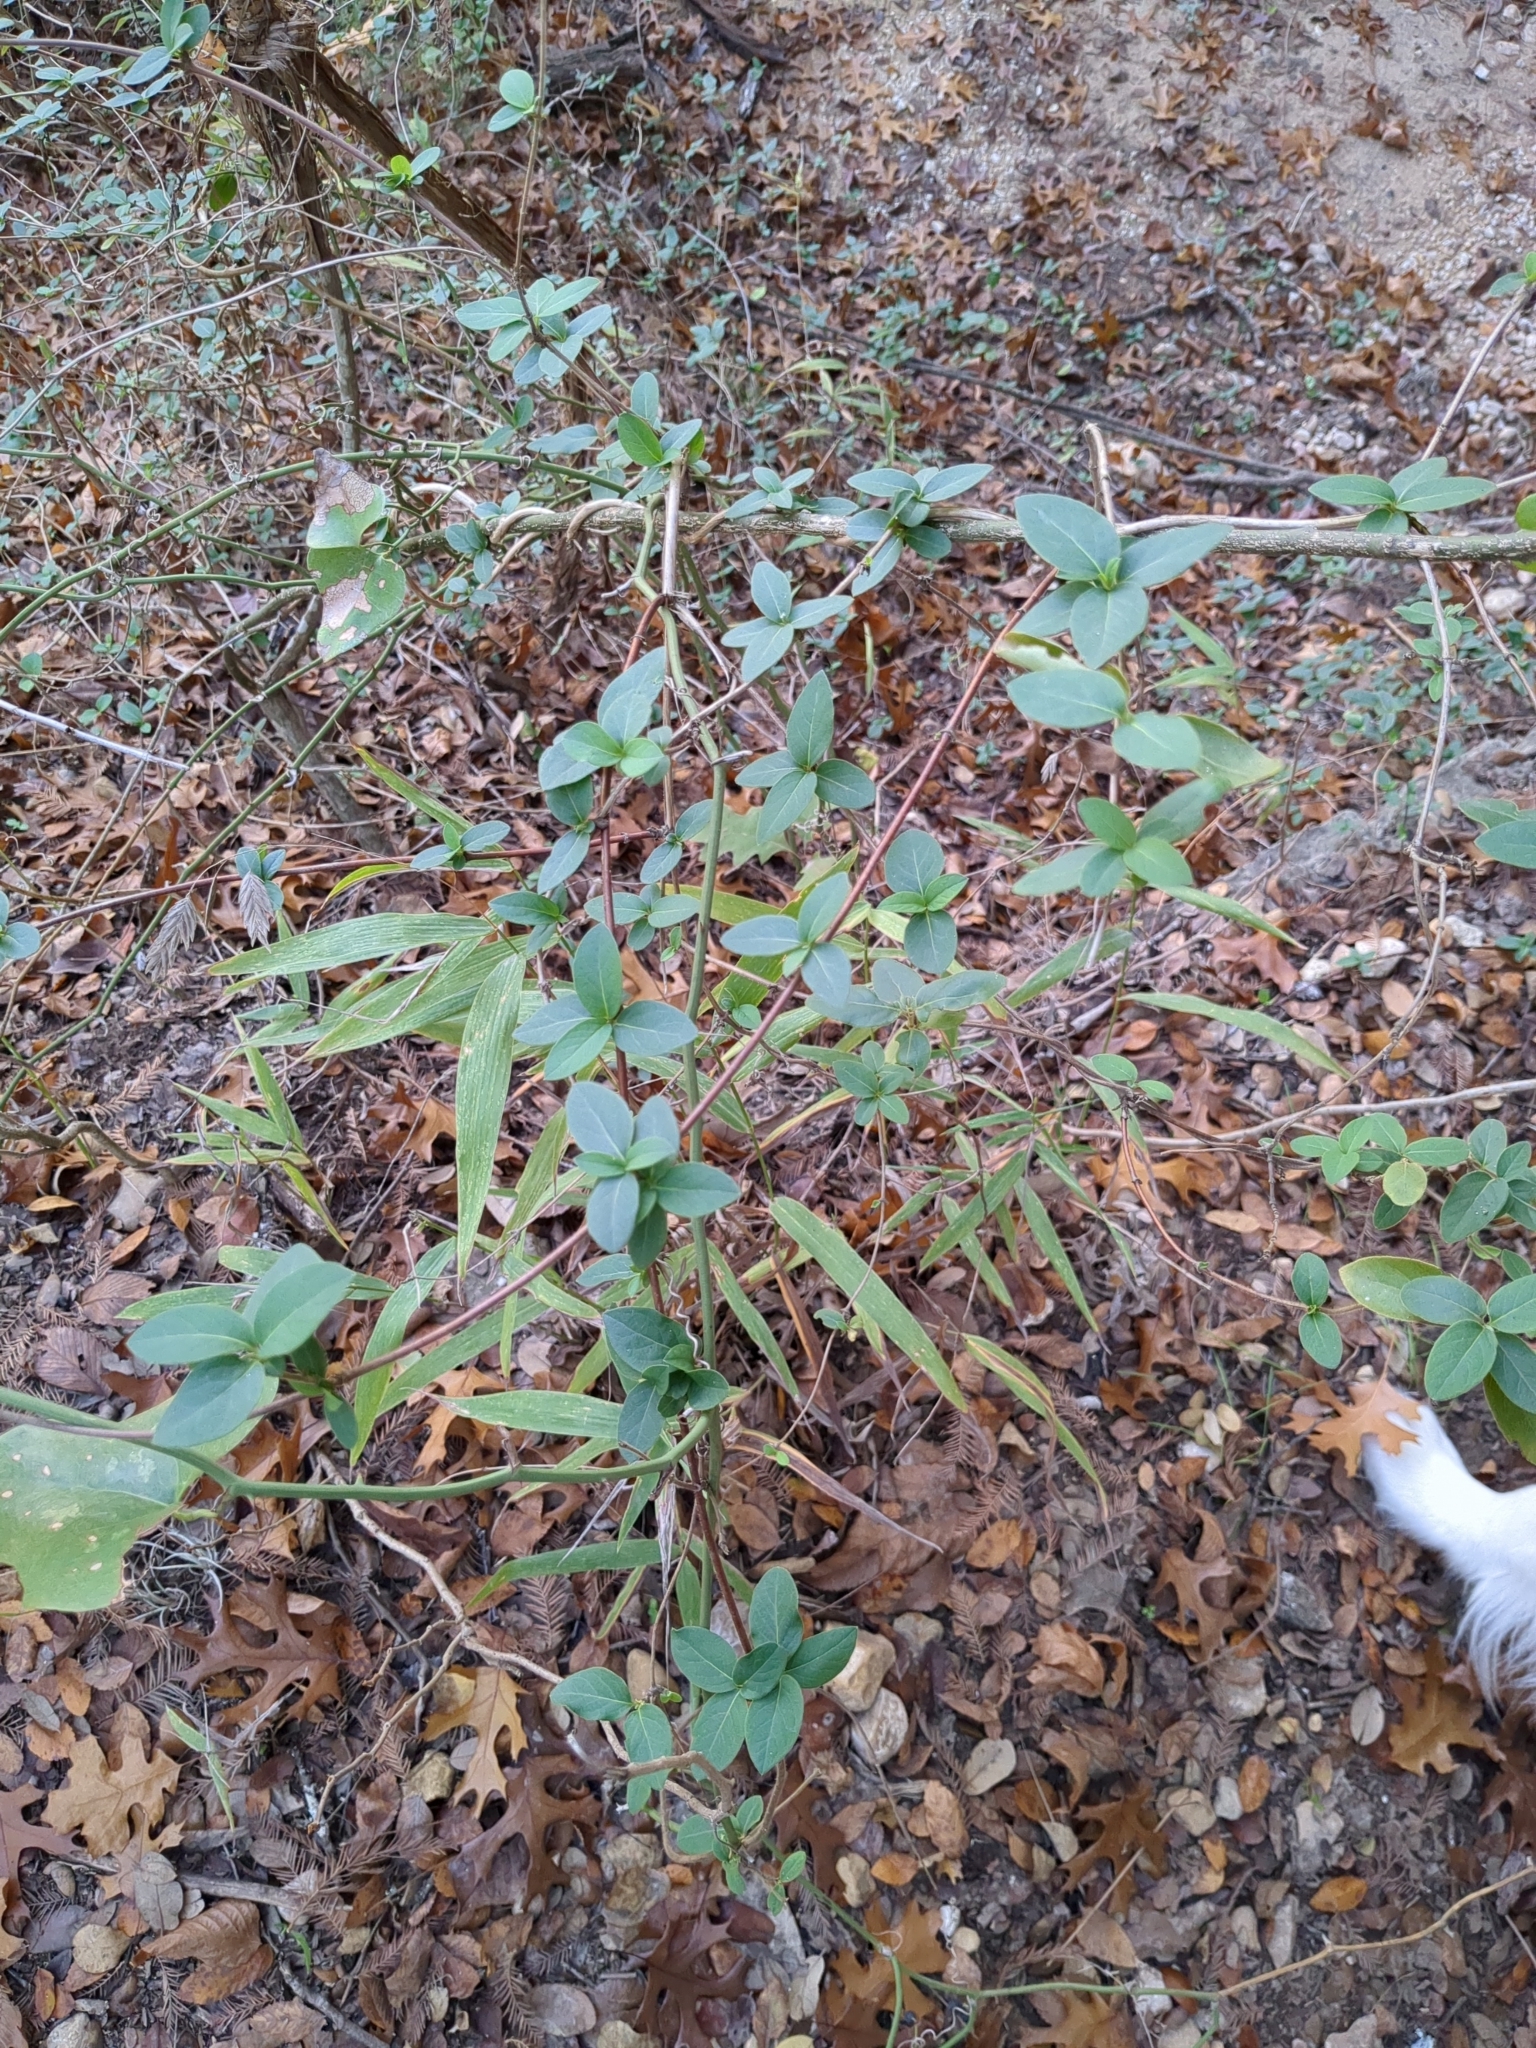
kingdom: Plantae
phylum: Tracheophyta
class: Magnoliopsida
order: Dipsacales
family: Caprifoliaceae
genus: Lonicera
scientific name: Lonicera japonica
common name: Japanese honeysuckle
